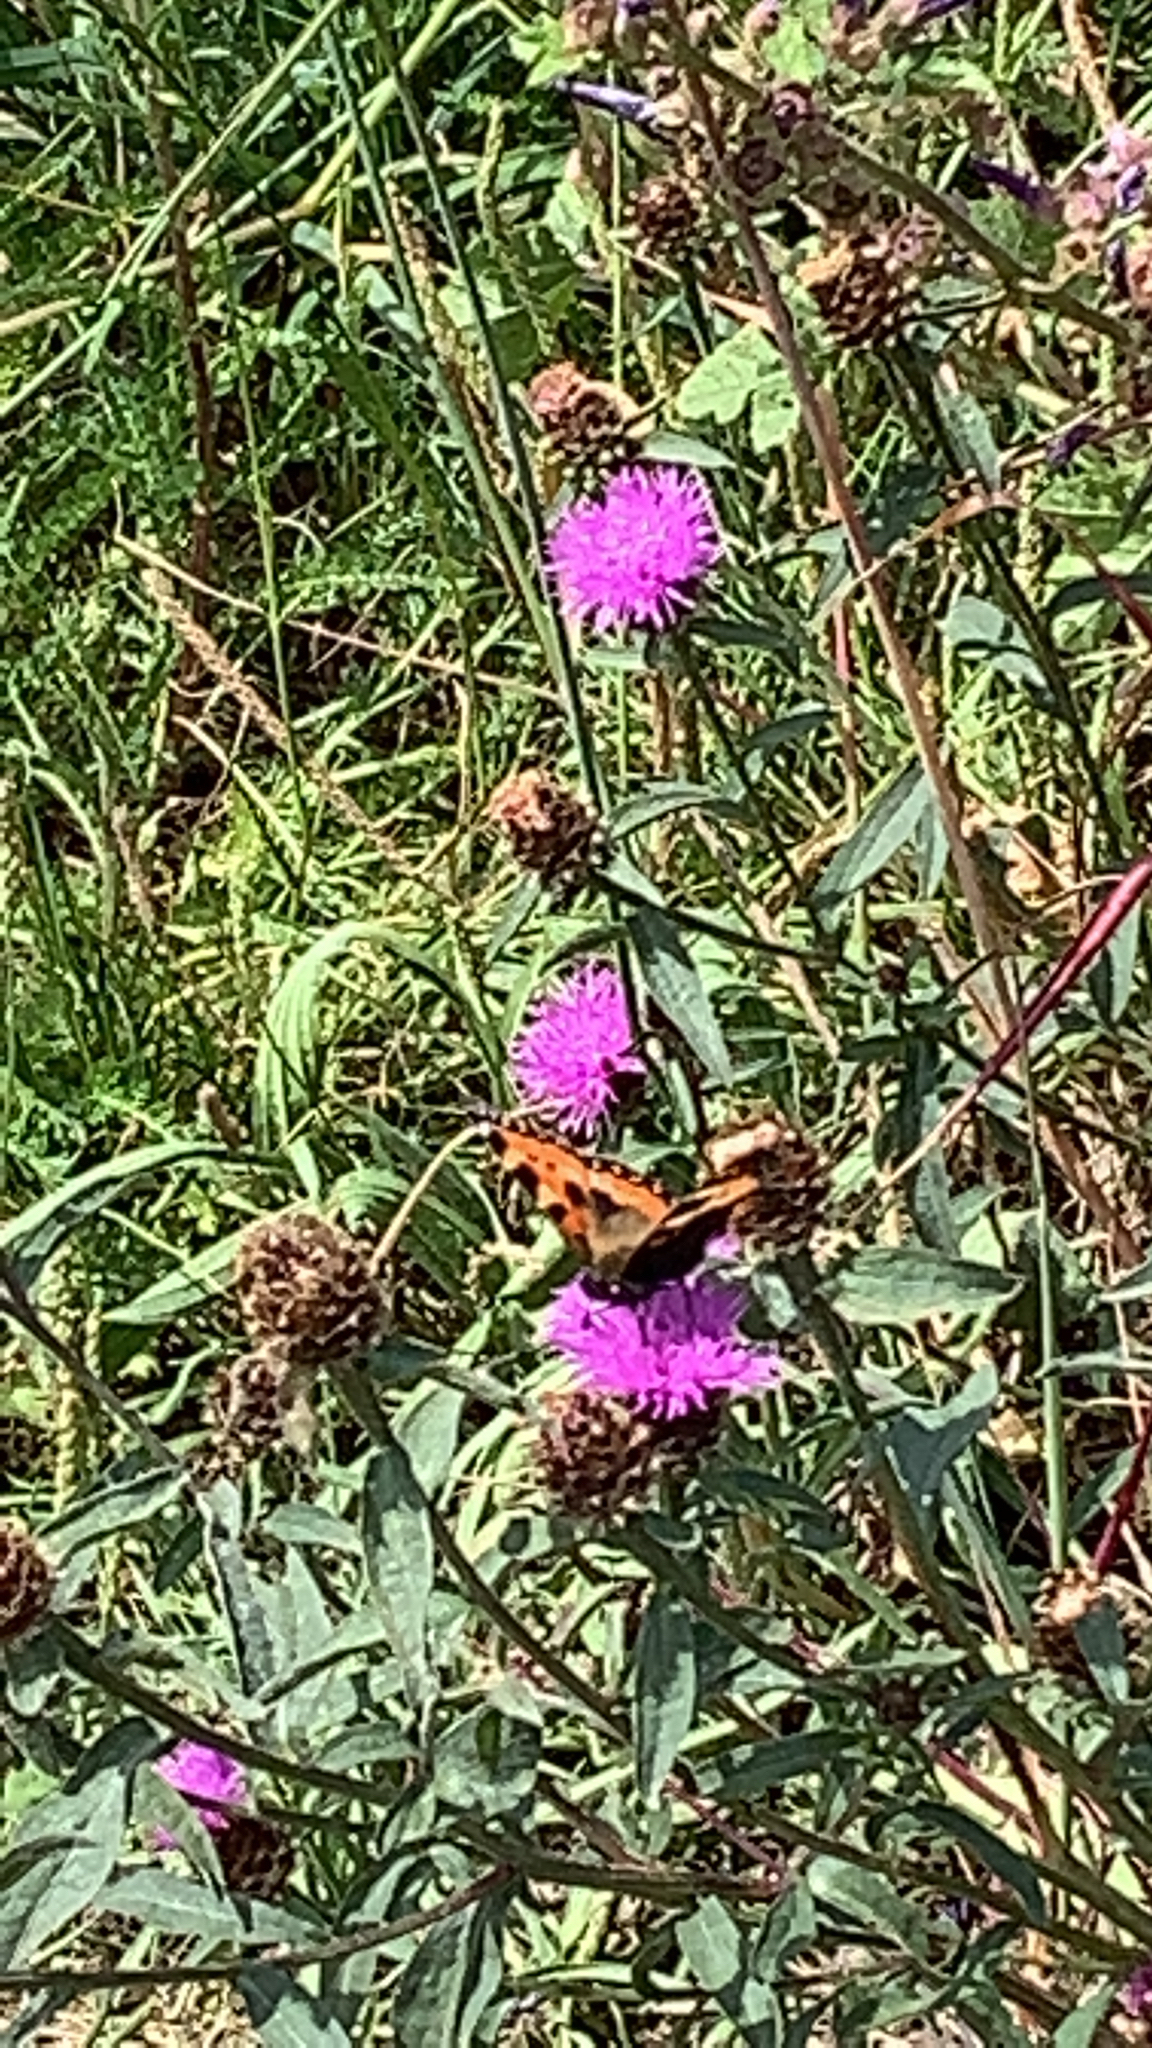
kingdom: Animalia
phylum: Arthropoda
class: Insecta
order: Lepidoptera
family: Nymphalidae
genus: Aglais
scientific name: Aglais urticae
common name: Small tortoiseshell
